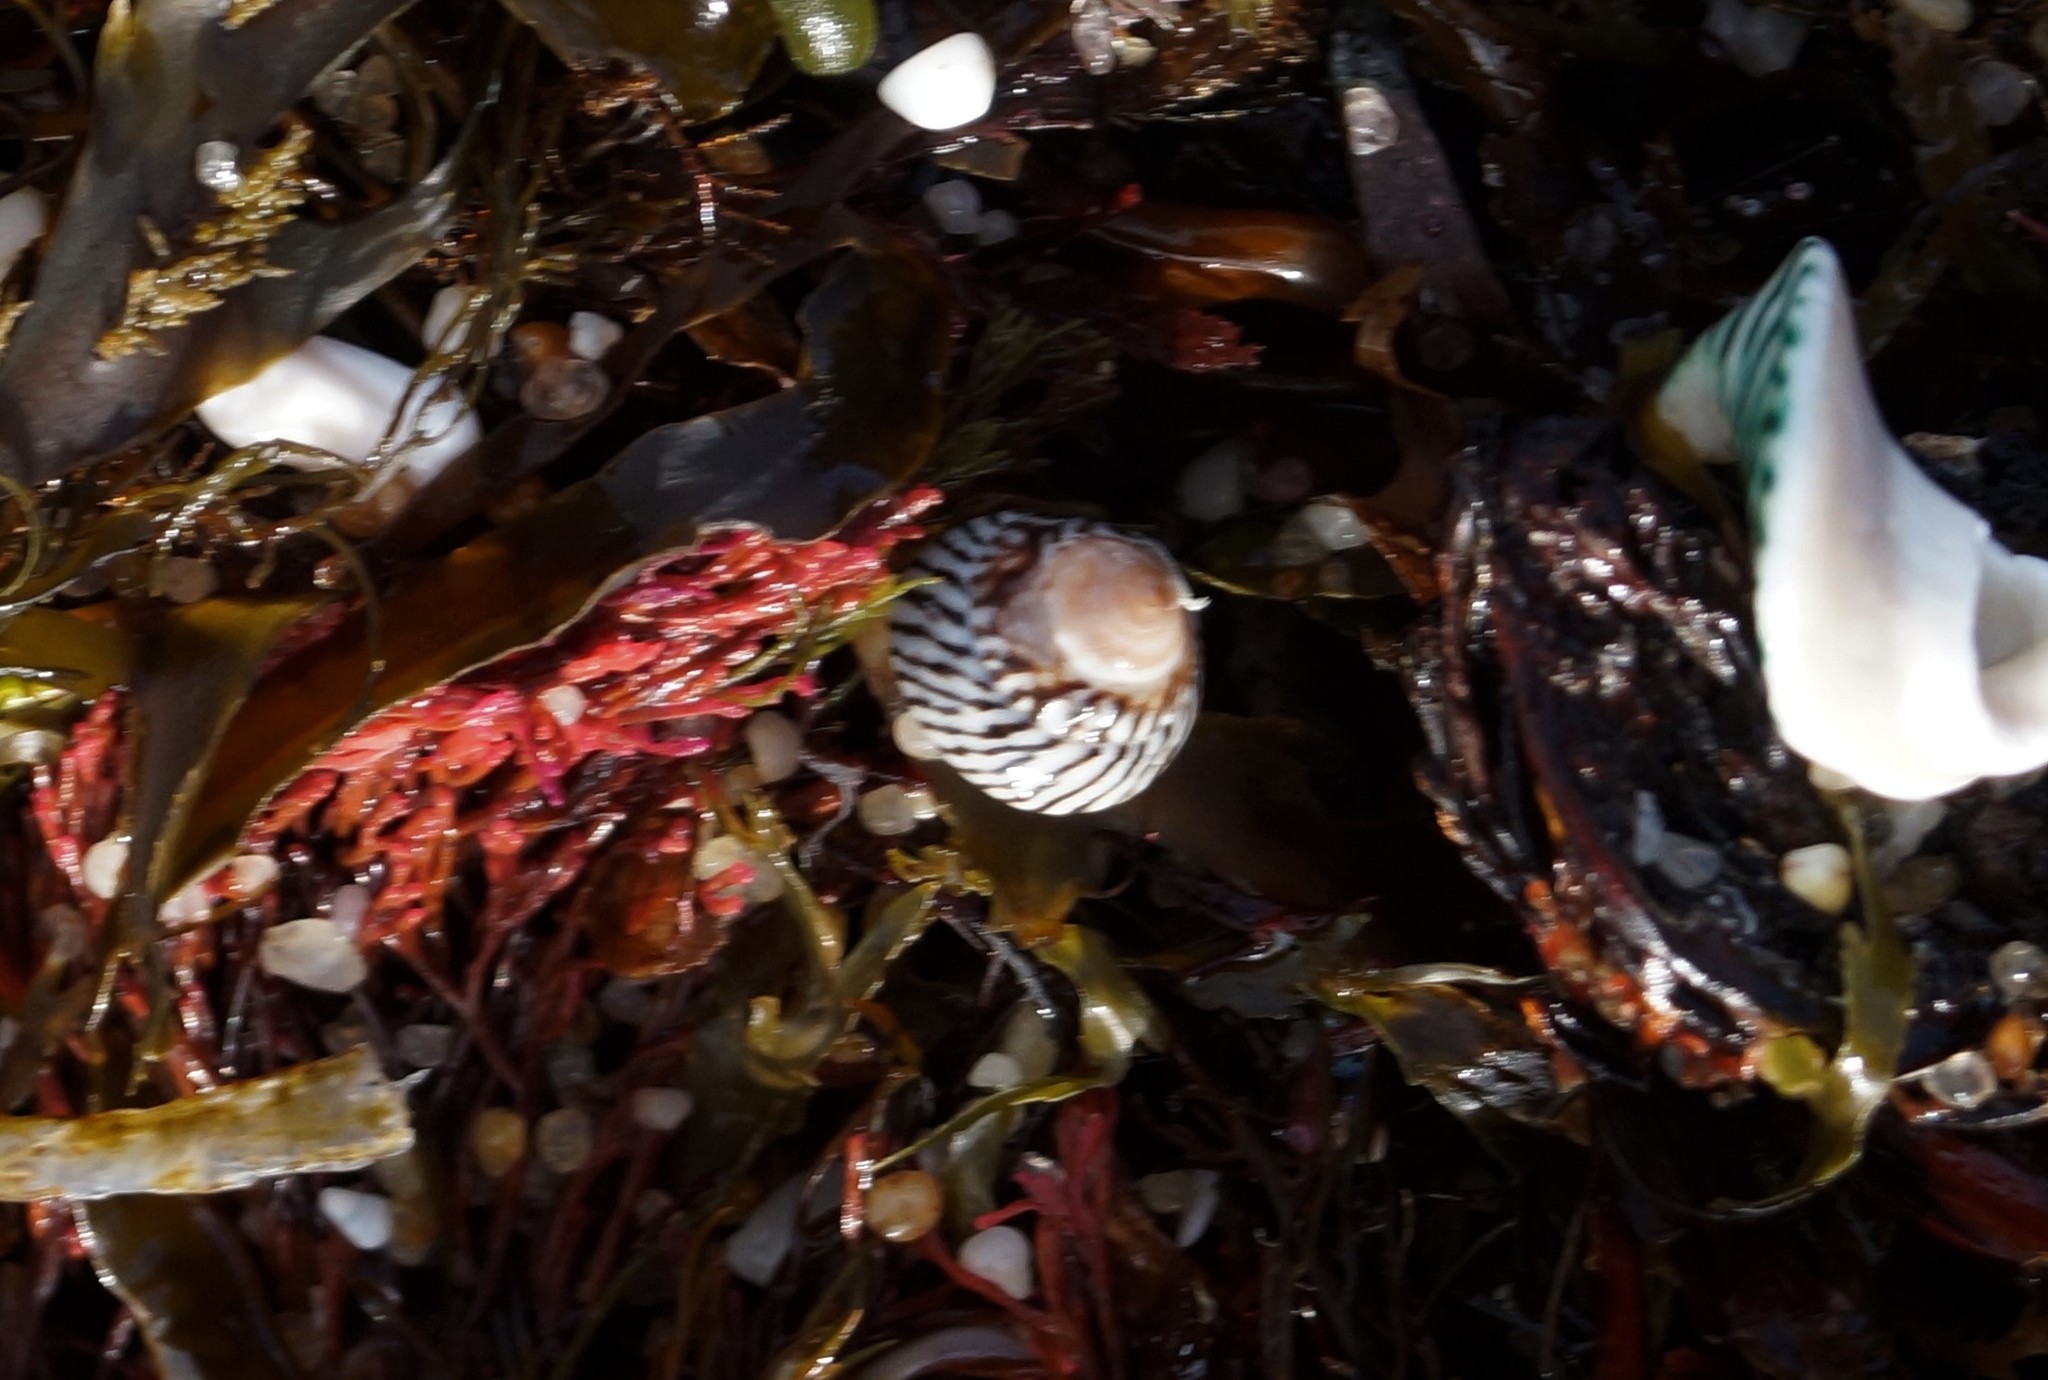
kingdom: Animalia
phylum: Mollusca
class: Gastropoda
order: Littorinimorpha
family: Littorinidae
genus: Bembicium
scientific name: Bembicium nanum
